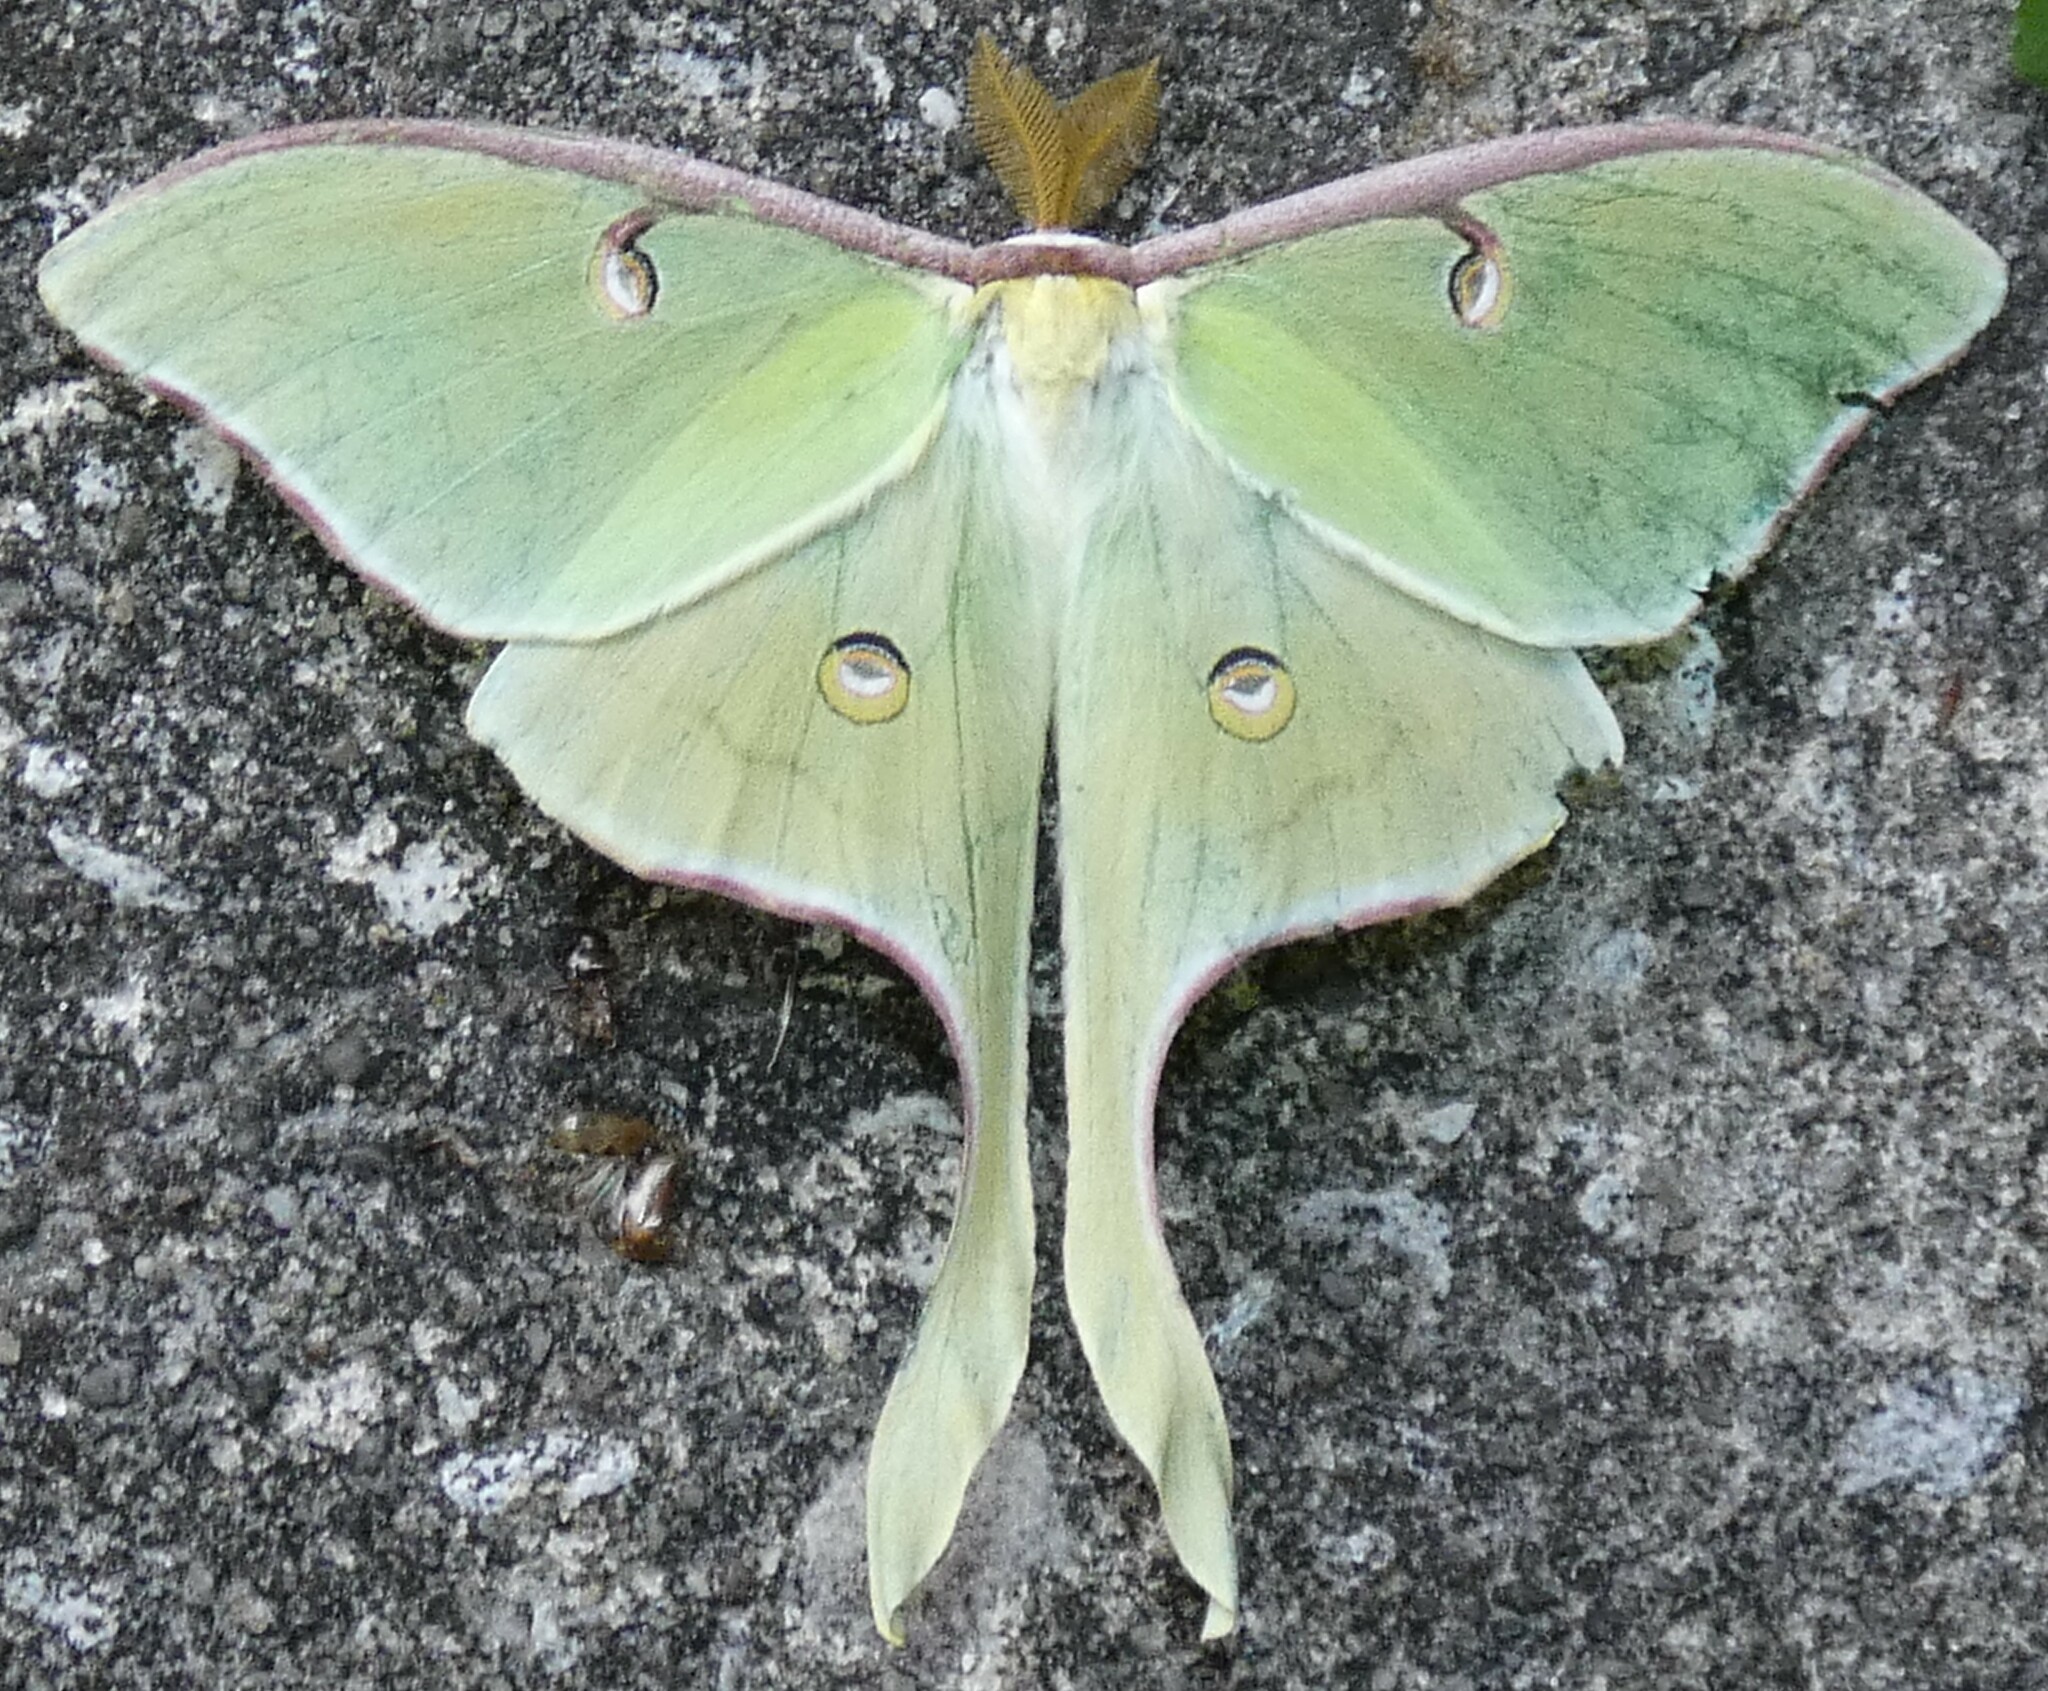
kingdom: Animalia
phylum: Arthropoda
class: Insecta
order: Lepidoptera
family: Saturniidae
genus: Actias
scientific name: Actias luna
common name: Luna moth
